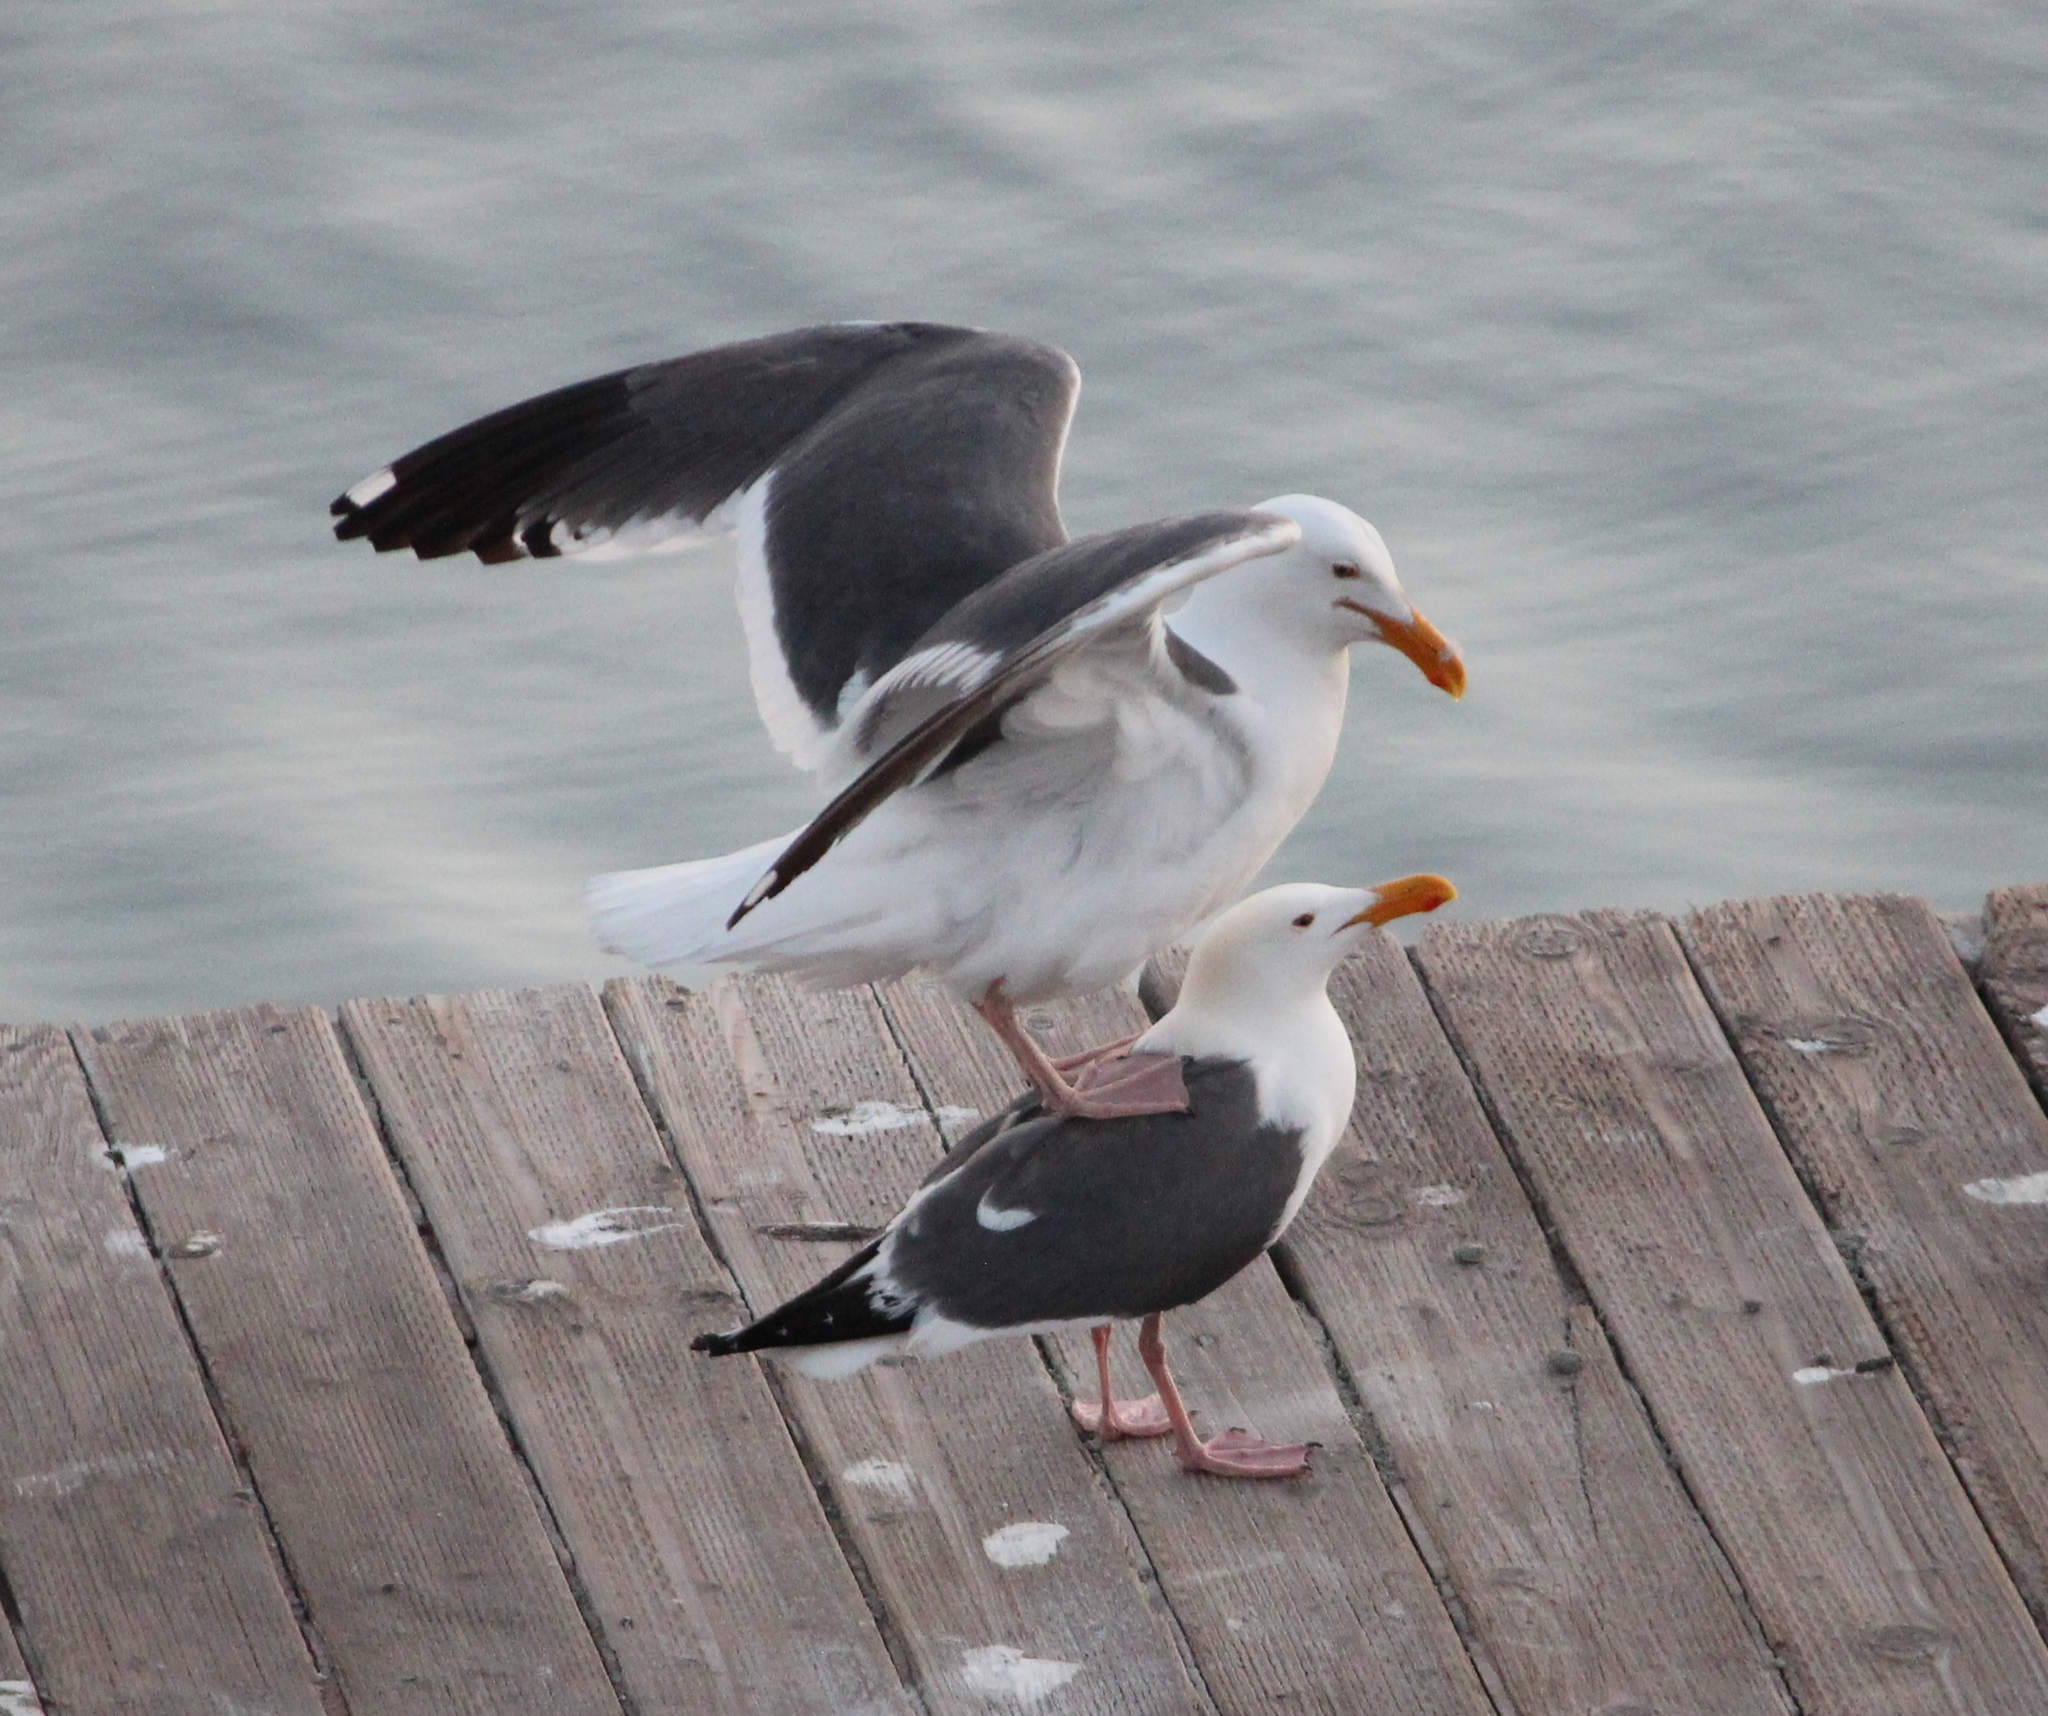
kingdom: Animalia
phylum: Chordata
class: Aves
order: Charadriiformes
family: Laridae
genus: Larus
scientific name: Larus occidentalis
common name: Western gull
